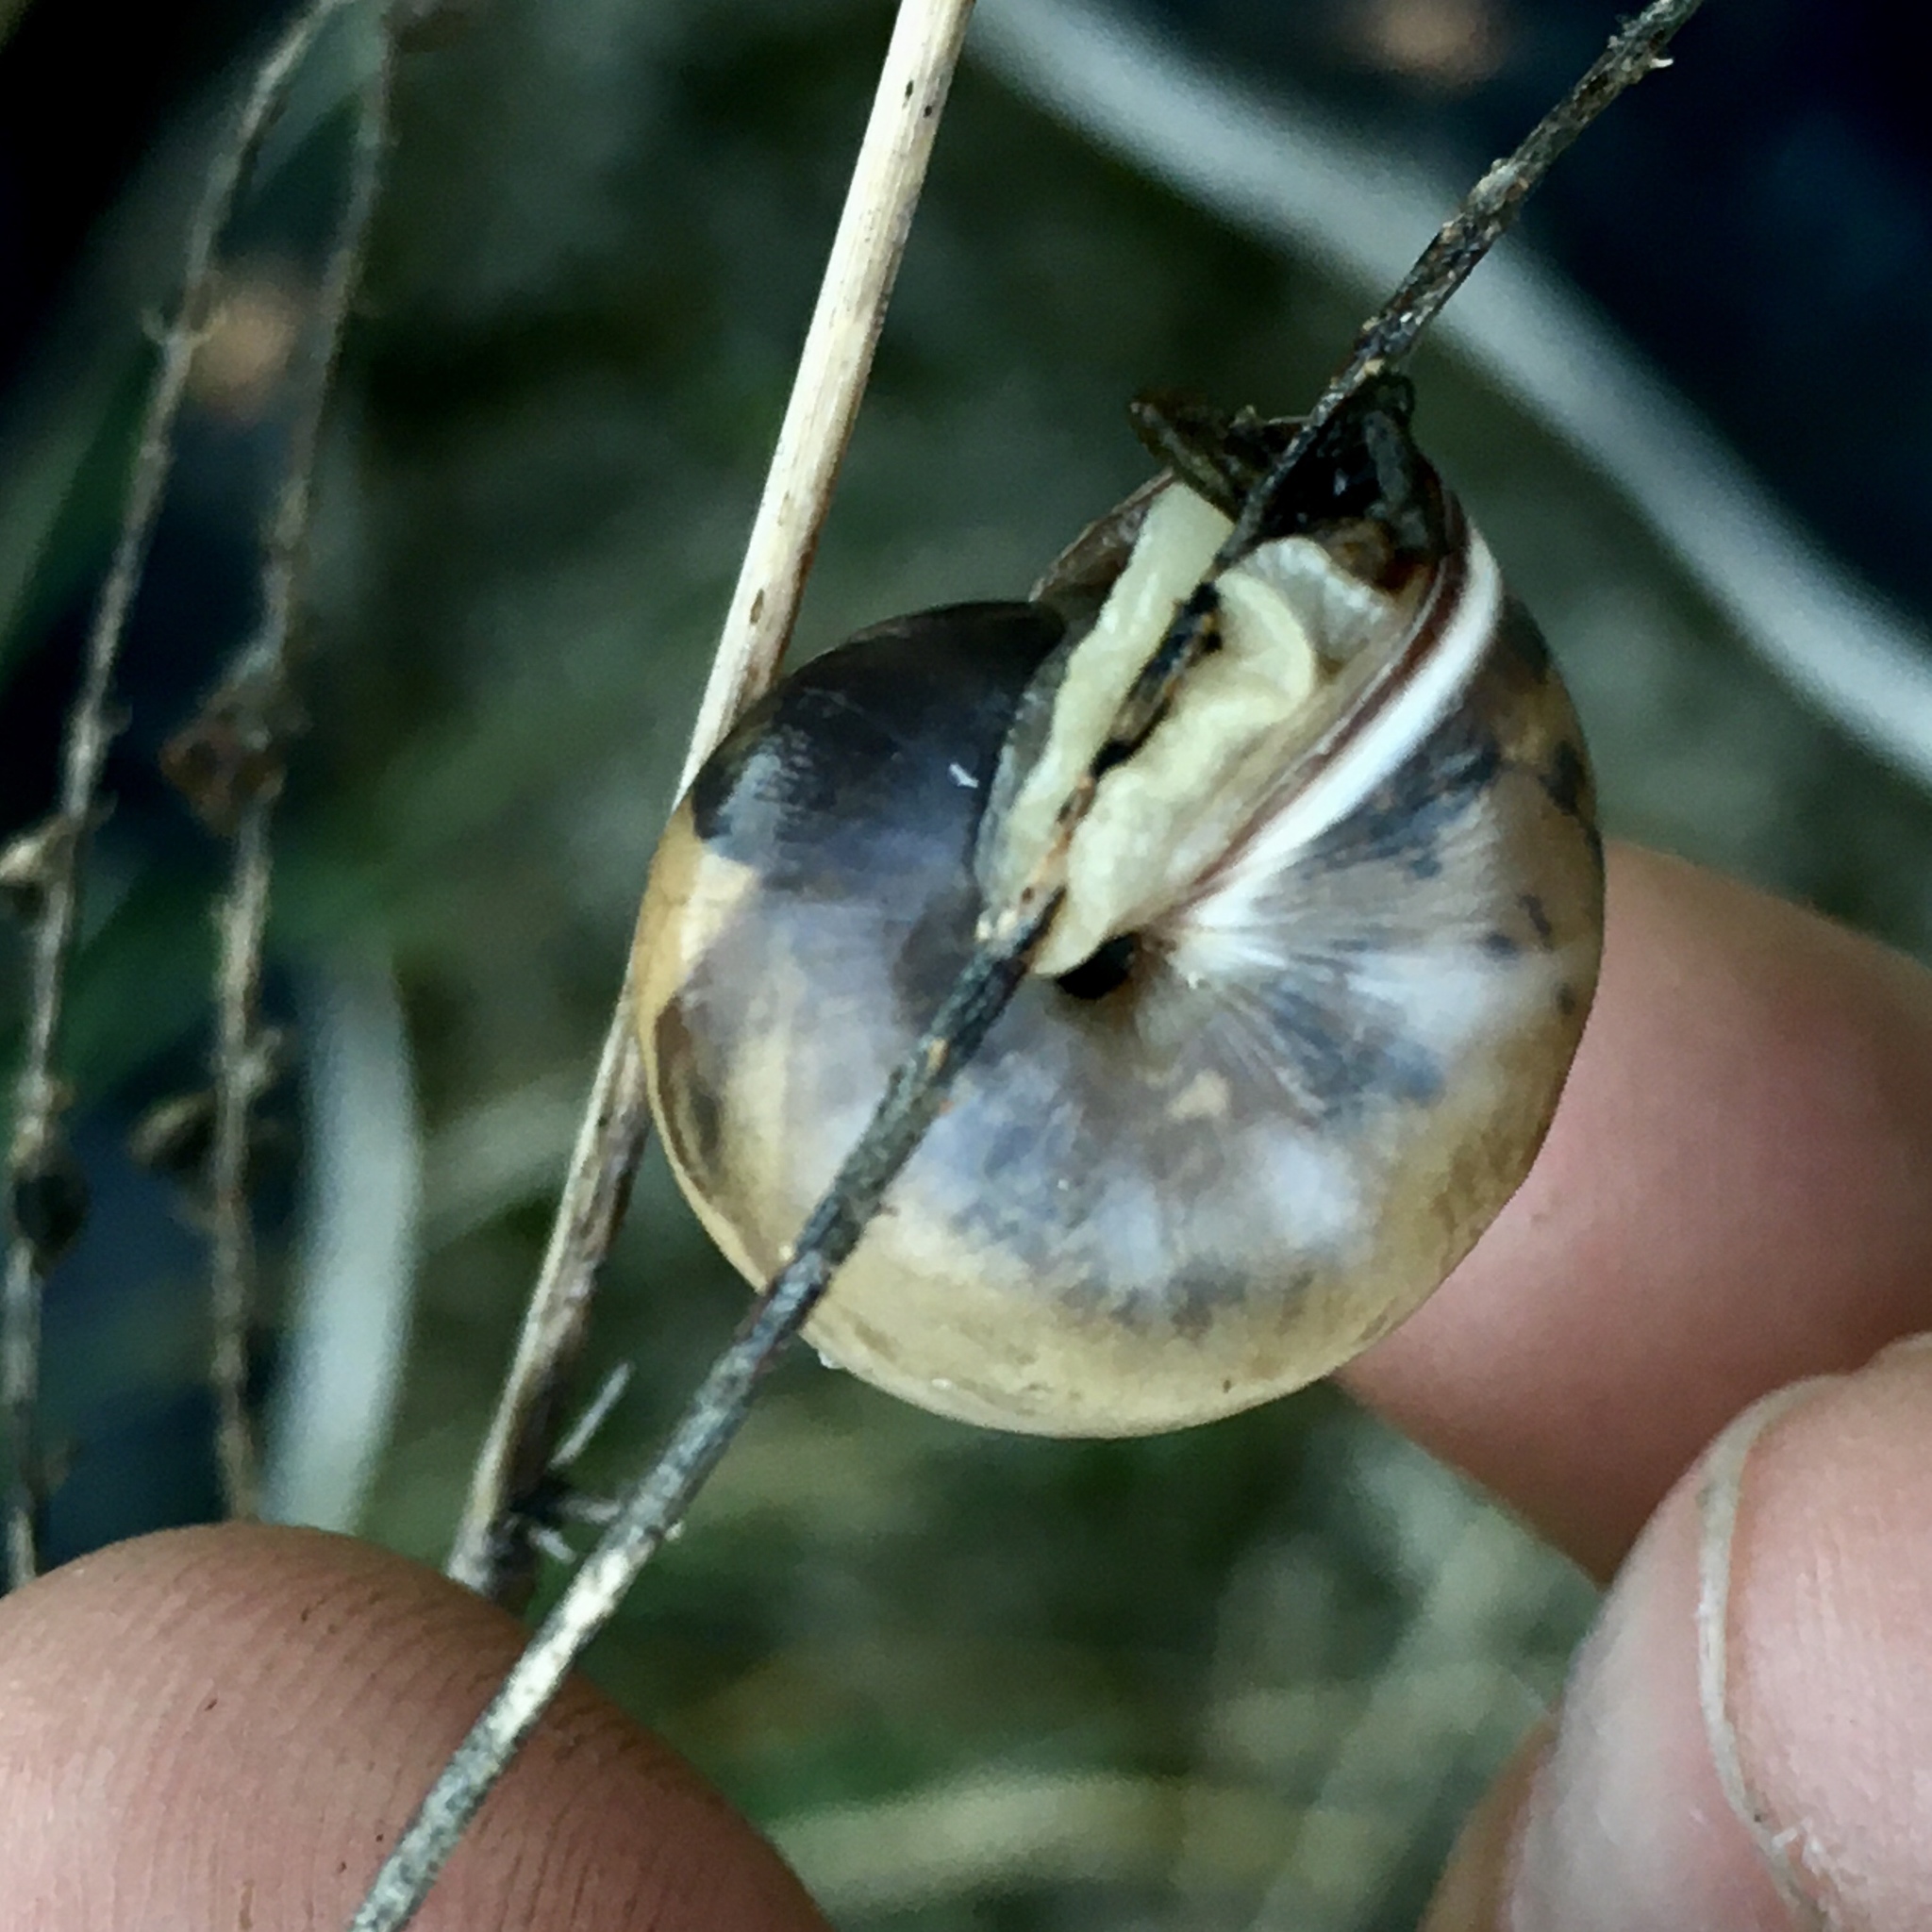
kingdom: Animalia
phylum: Mollusca
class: Gastropoda
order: Stylommatophora
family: Hygromiidae
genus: Monacha
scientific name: Monacha
